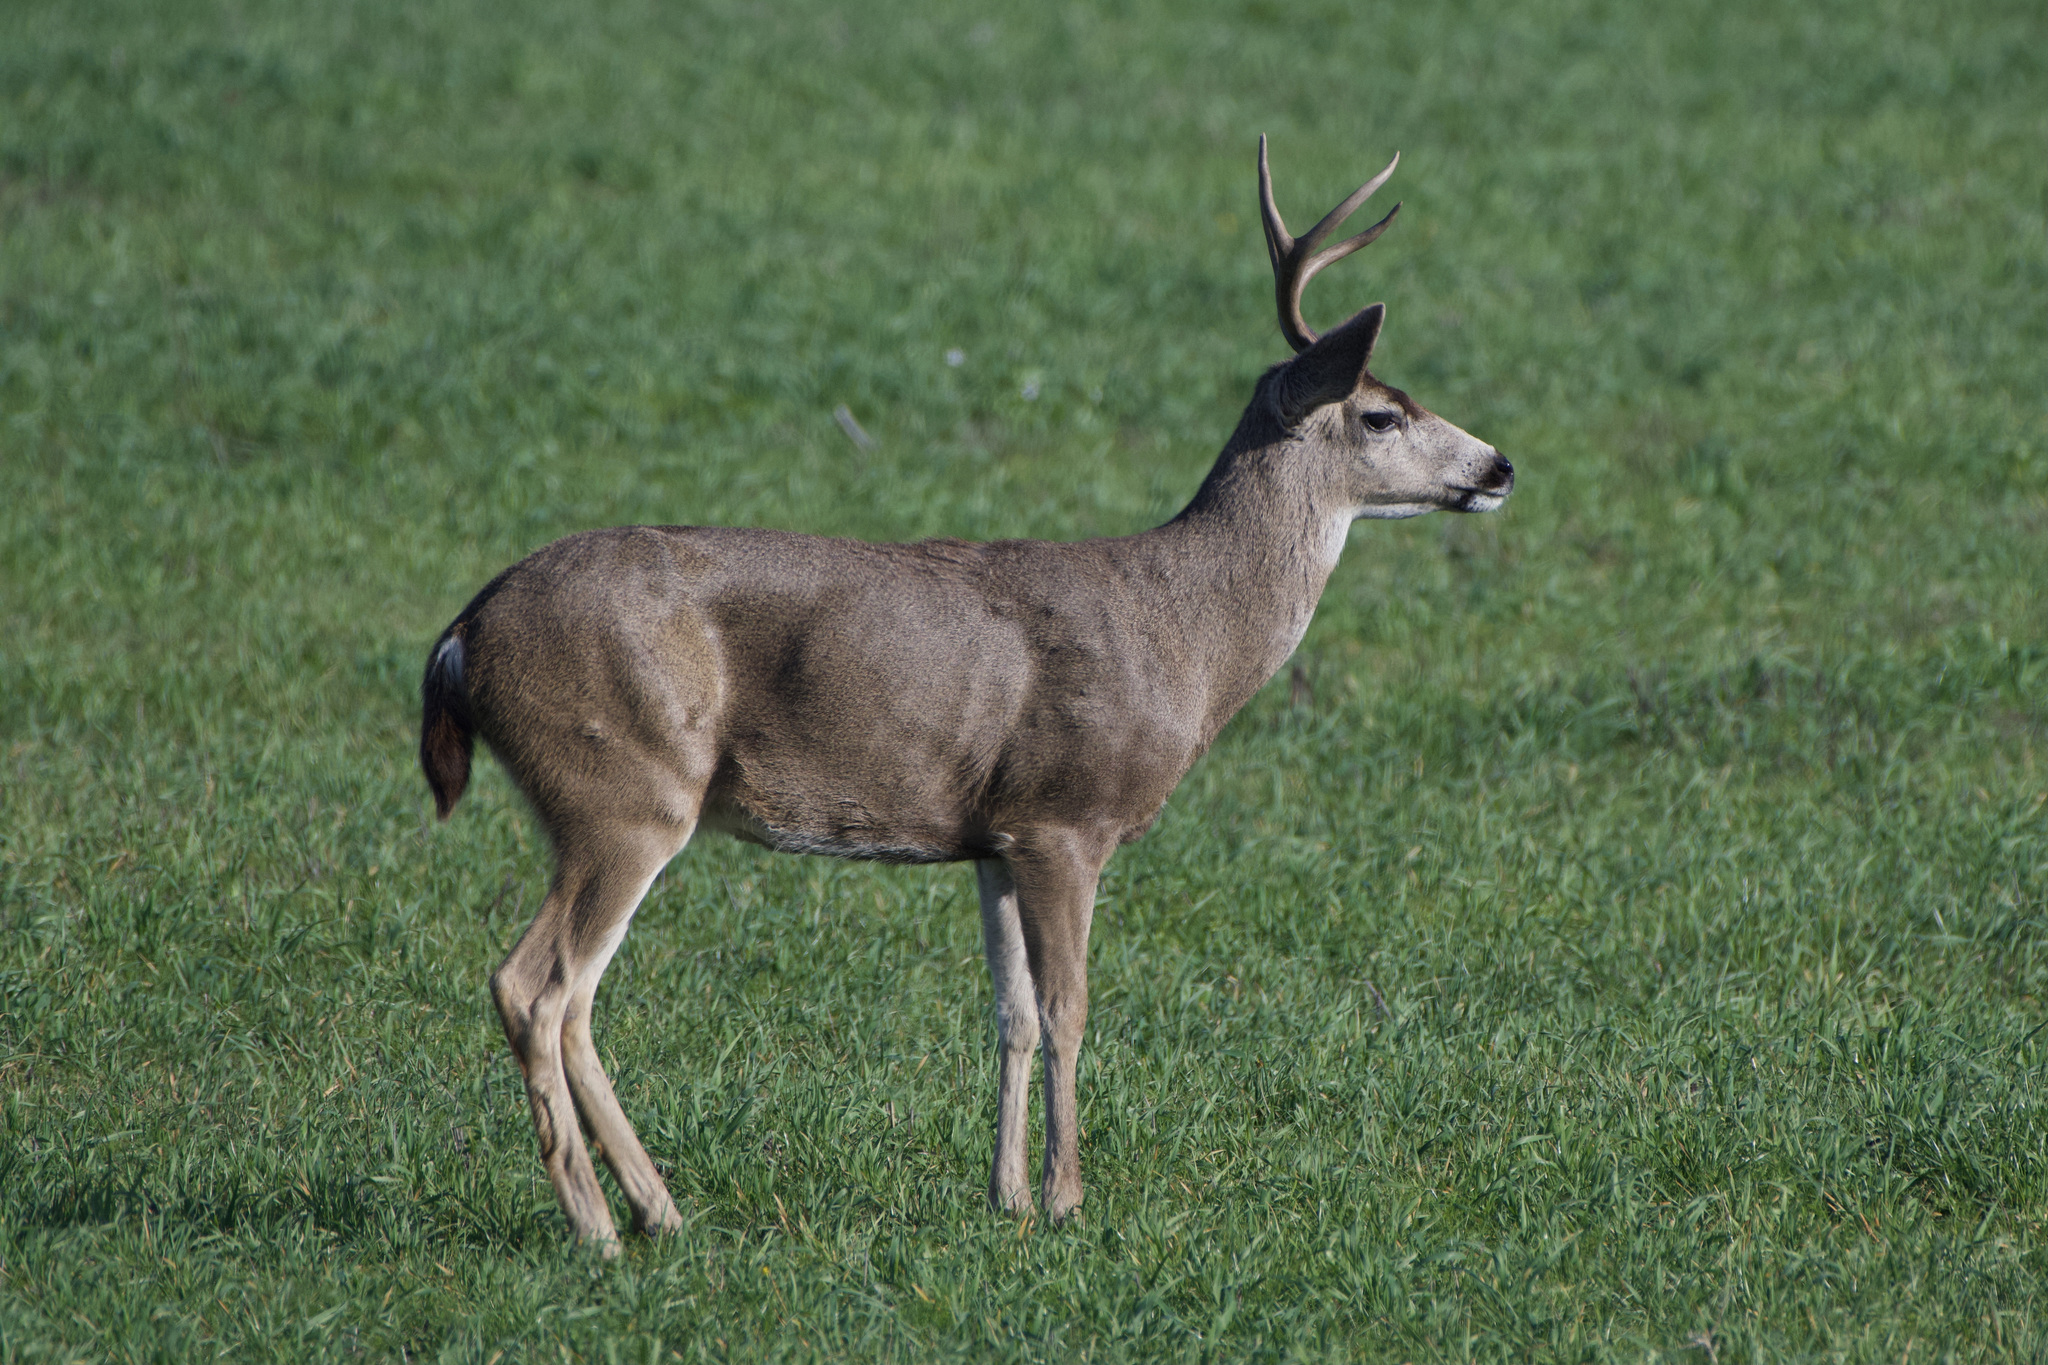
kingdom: Animalia
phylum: Chordata
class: Mammalia
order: Artiodactyla
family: Cervidae
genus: Odocoileus
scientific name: Odocoileus hemionus
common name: Mule deer
